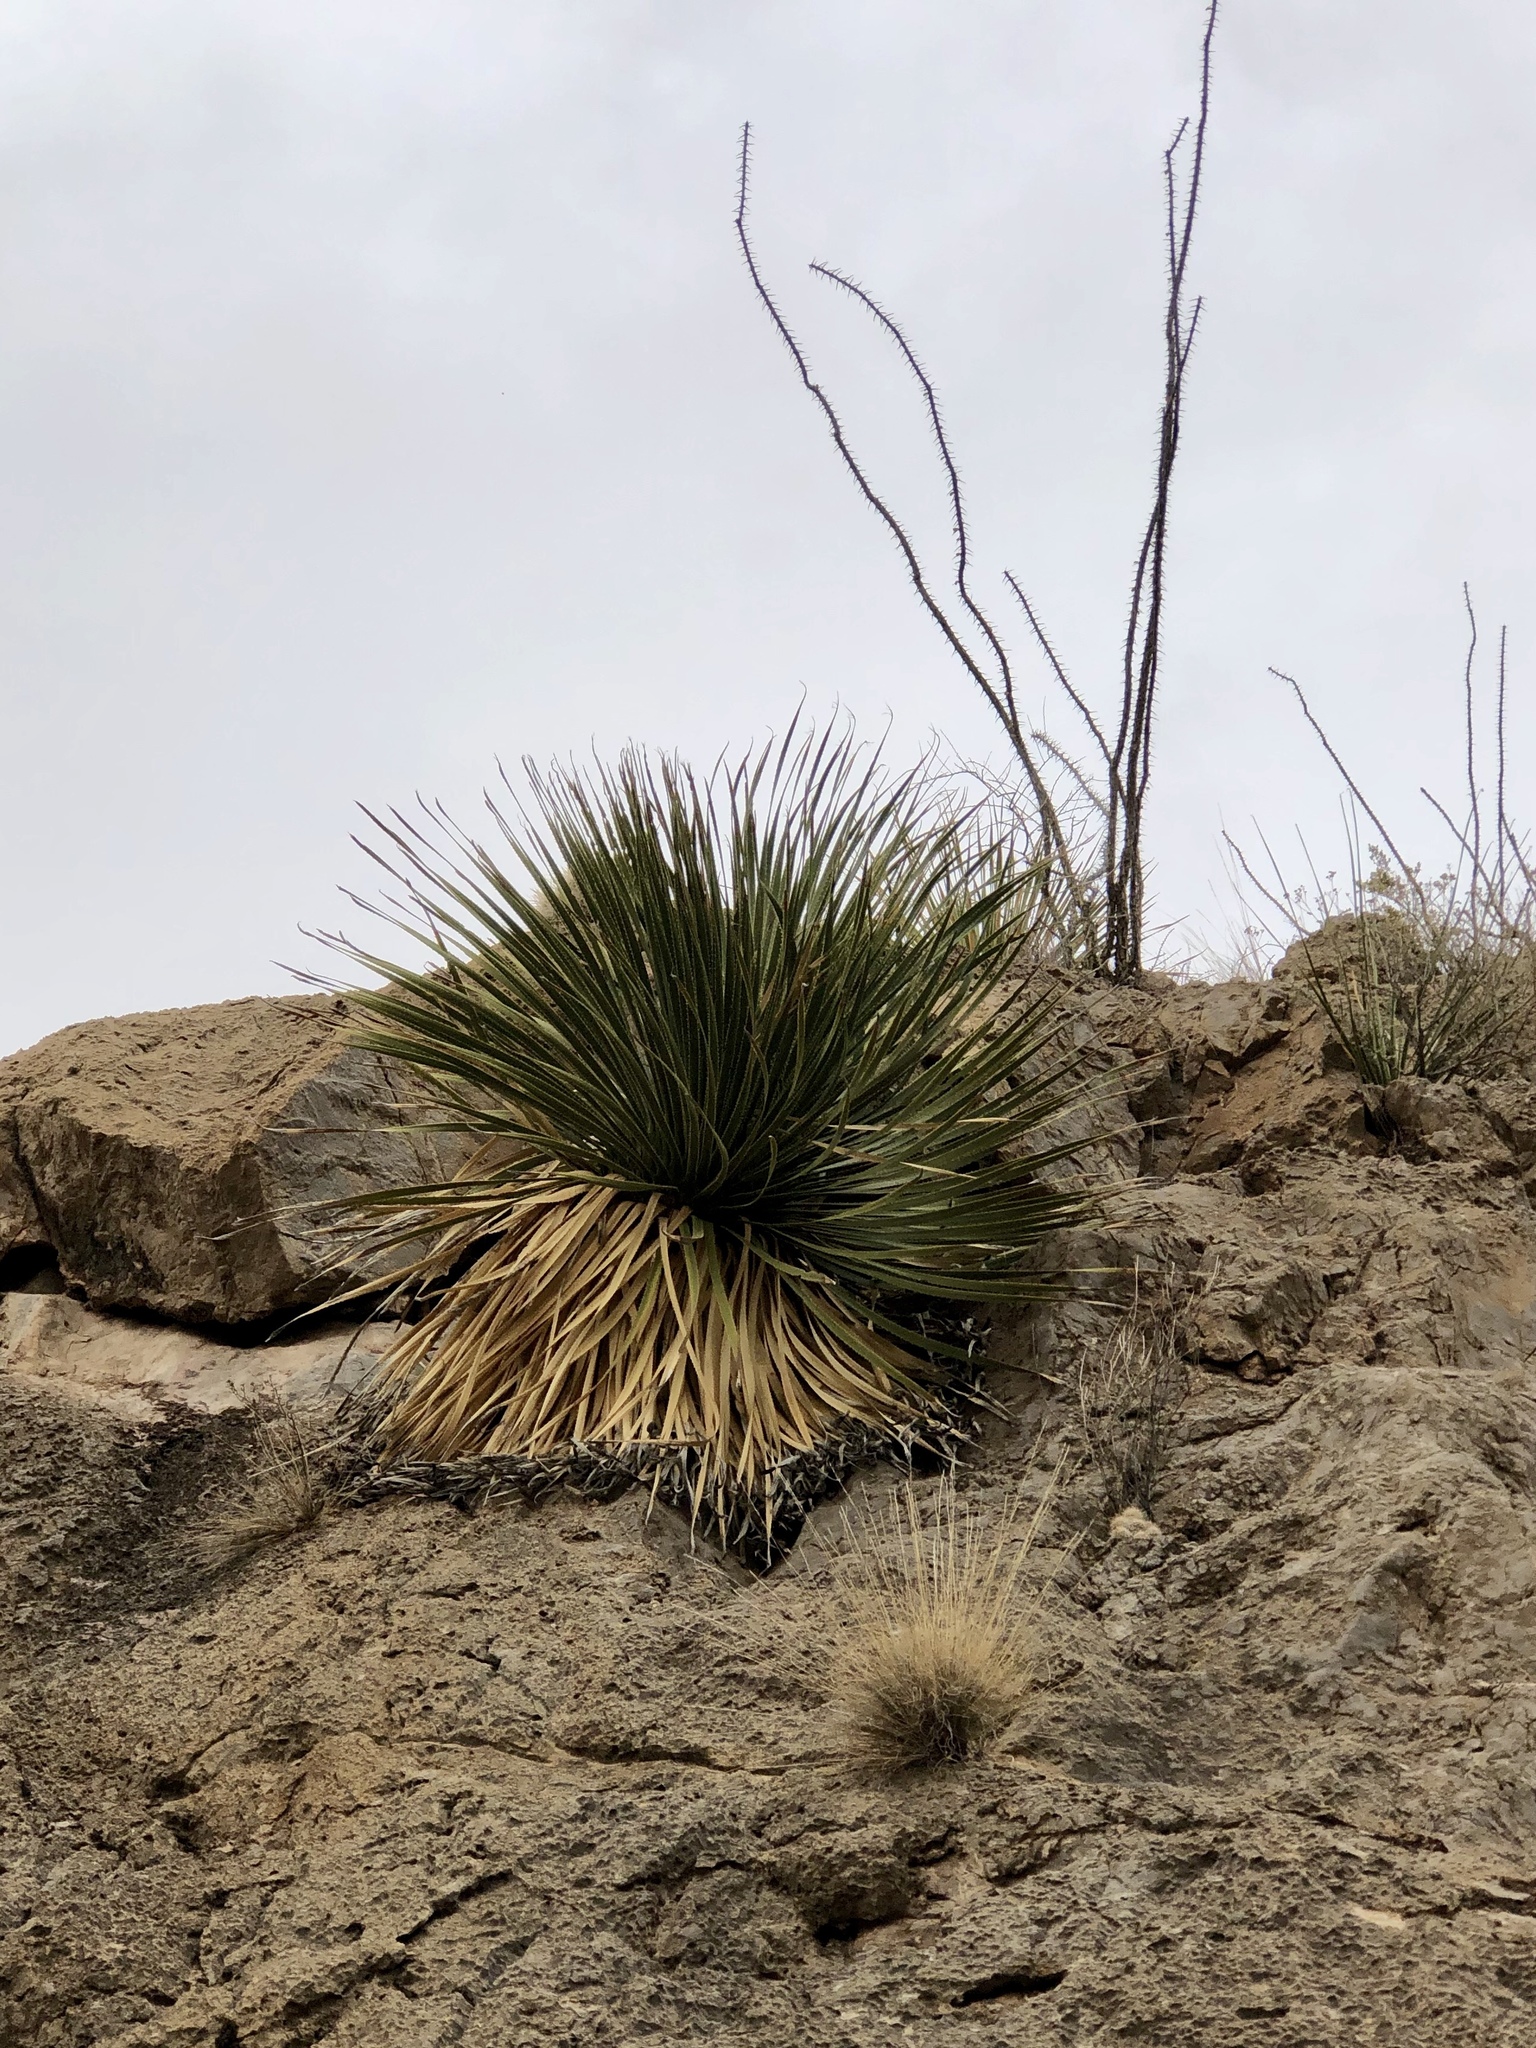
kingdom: Plantae
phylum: Tracheophyta
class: Liliopsida
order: Asparagales
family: Asparagaceae
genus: Dasylirion
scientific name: Dasylirion wheeleri
